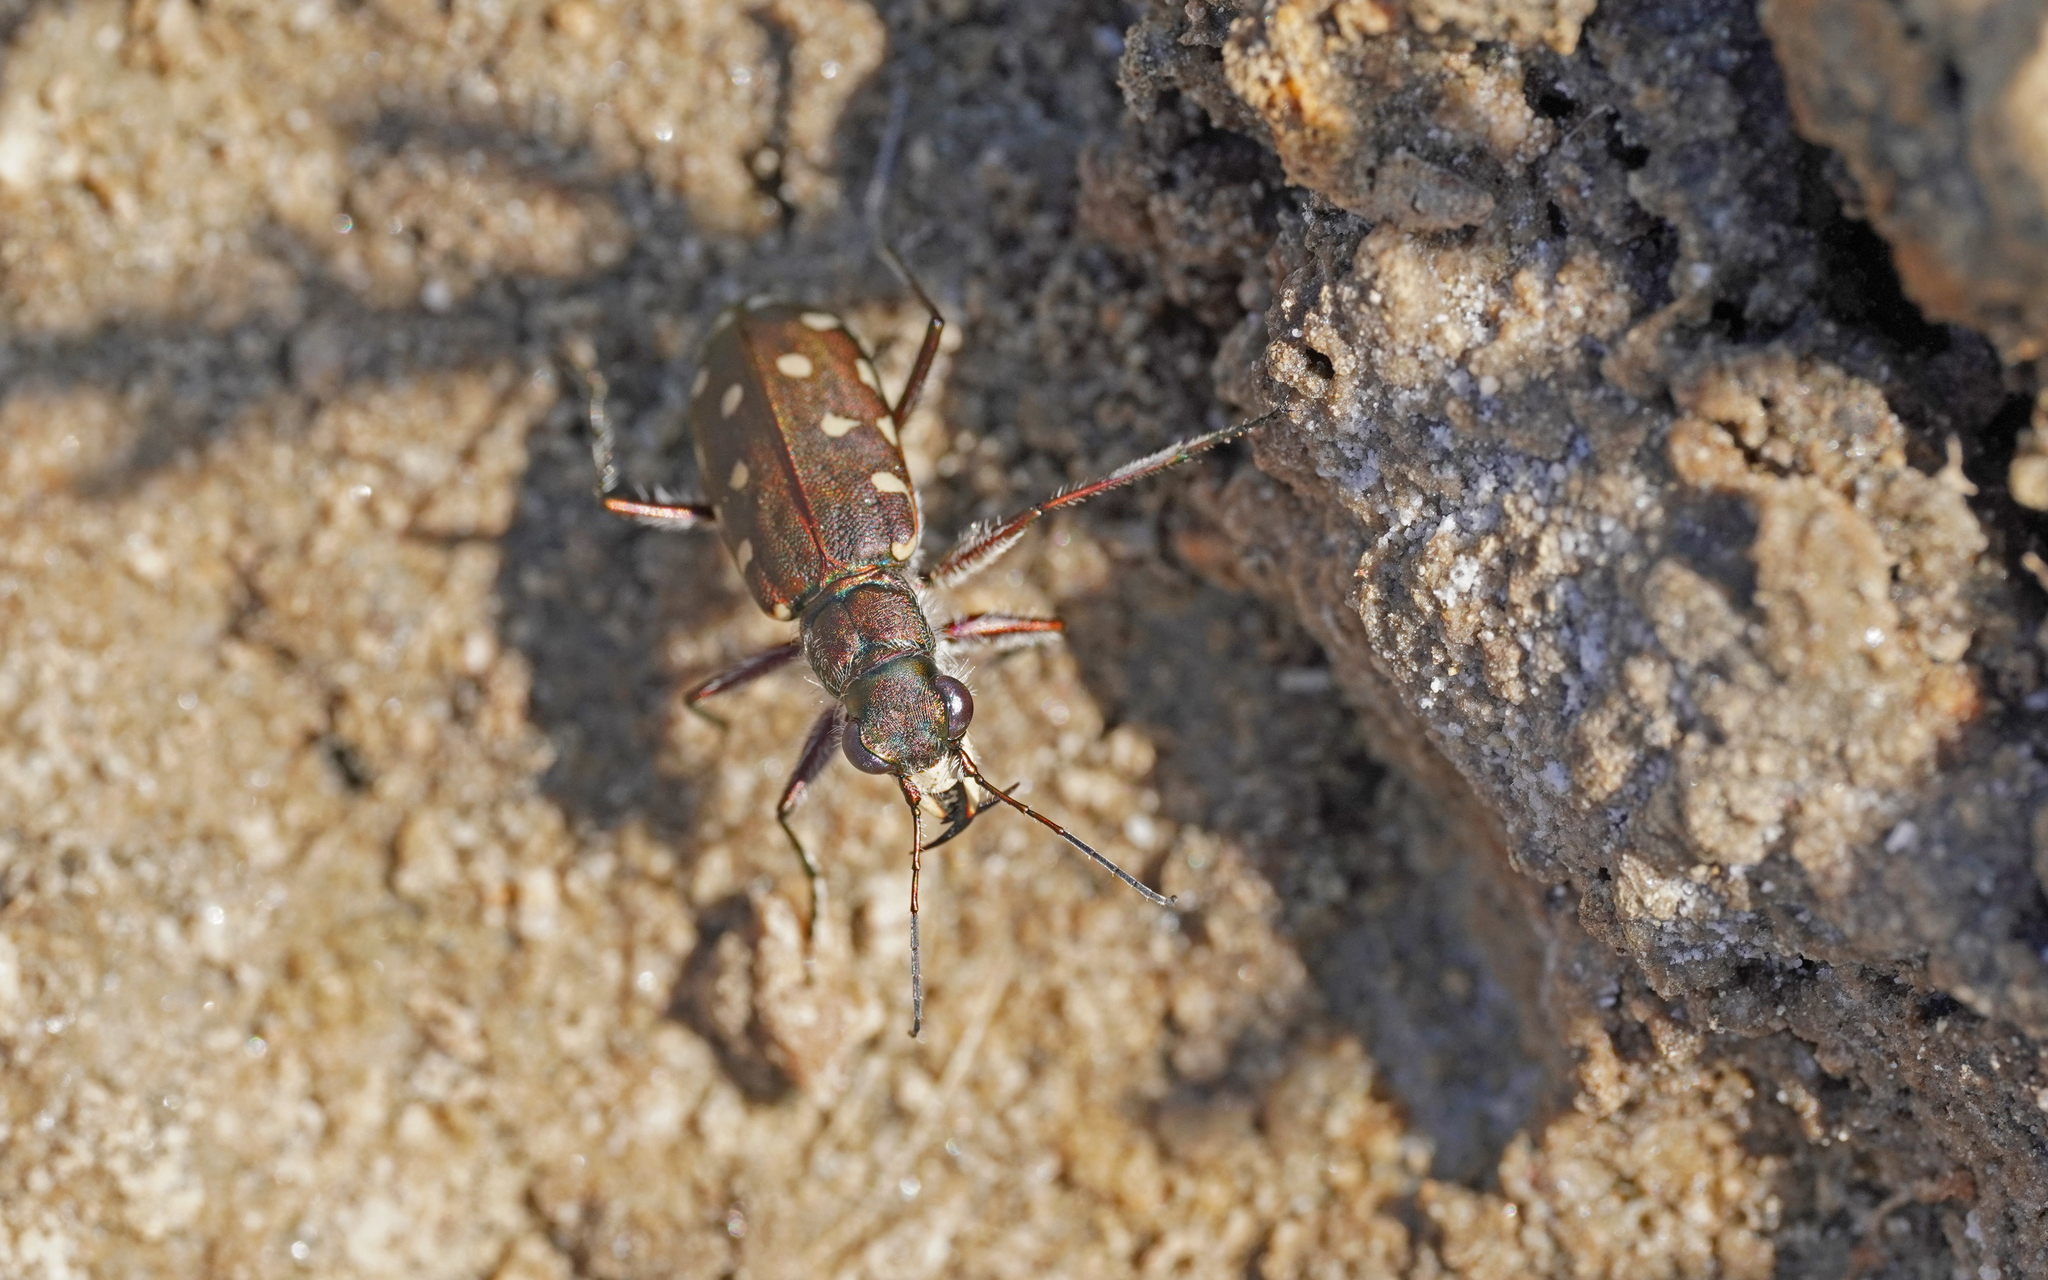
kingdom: Animalia
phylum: Arthropoda
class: Insecta
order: Coleoptera
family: Carabidae
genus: Cicindela
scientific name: Cicindela littoralis
